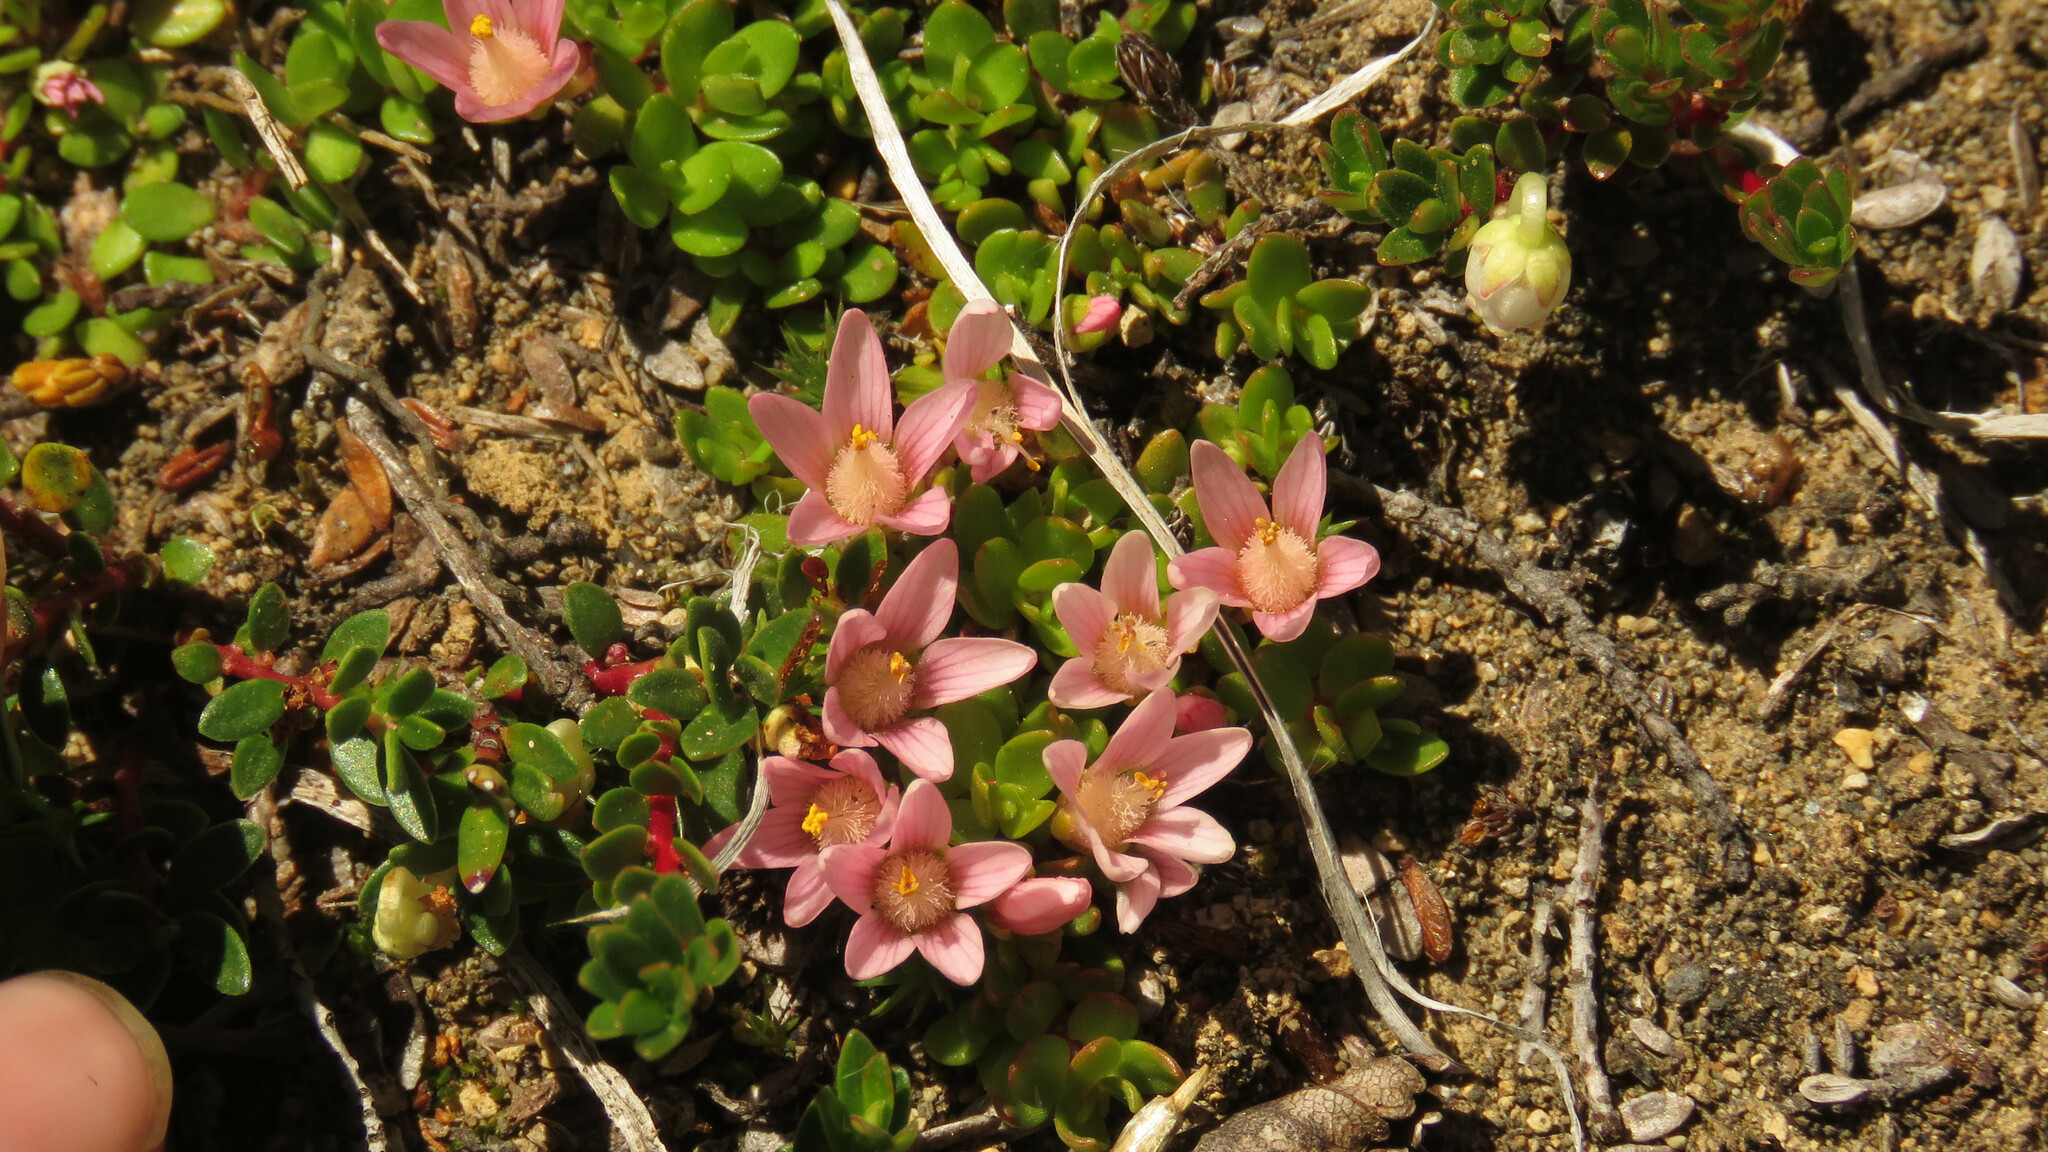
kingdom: Plantae
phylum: Tracheophyta
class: Magnoliopsida
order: Ericales
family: Primulaceae
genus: Lysimachia
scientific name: Lysimachia amoena
